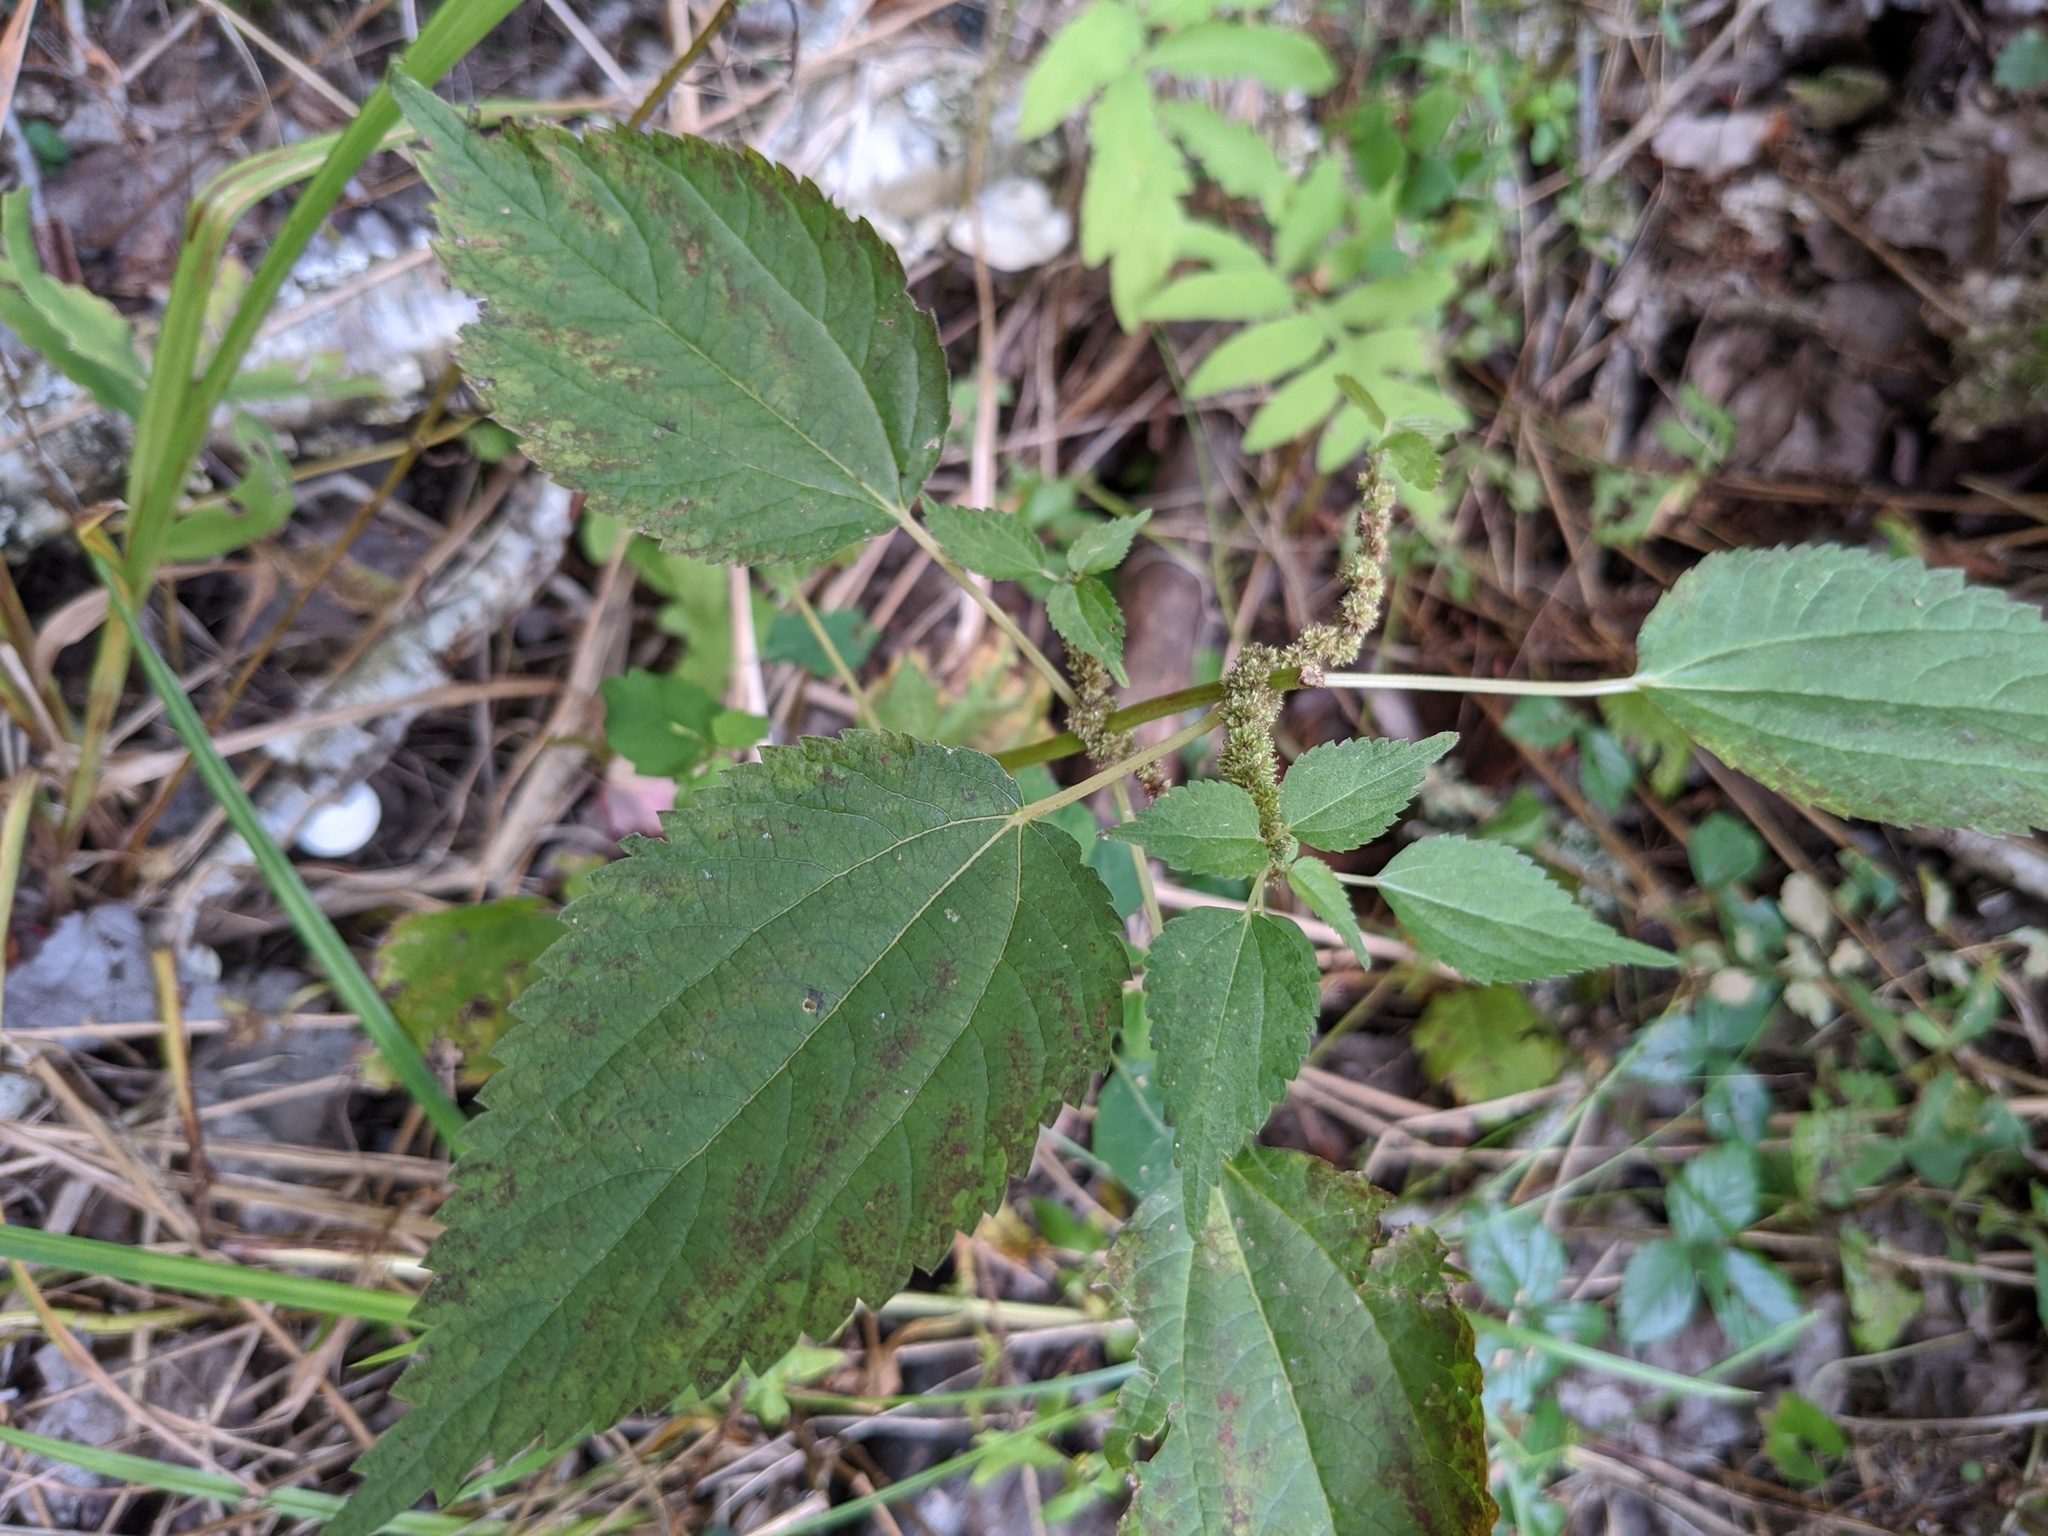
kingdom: Plantae
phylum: Tracheophyta
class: Magnoliopsida
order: Rosales
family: Urticaceae
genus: Boehmeria
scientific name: Boehmeria cylindrica
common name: Bog-hemp
